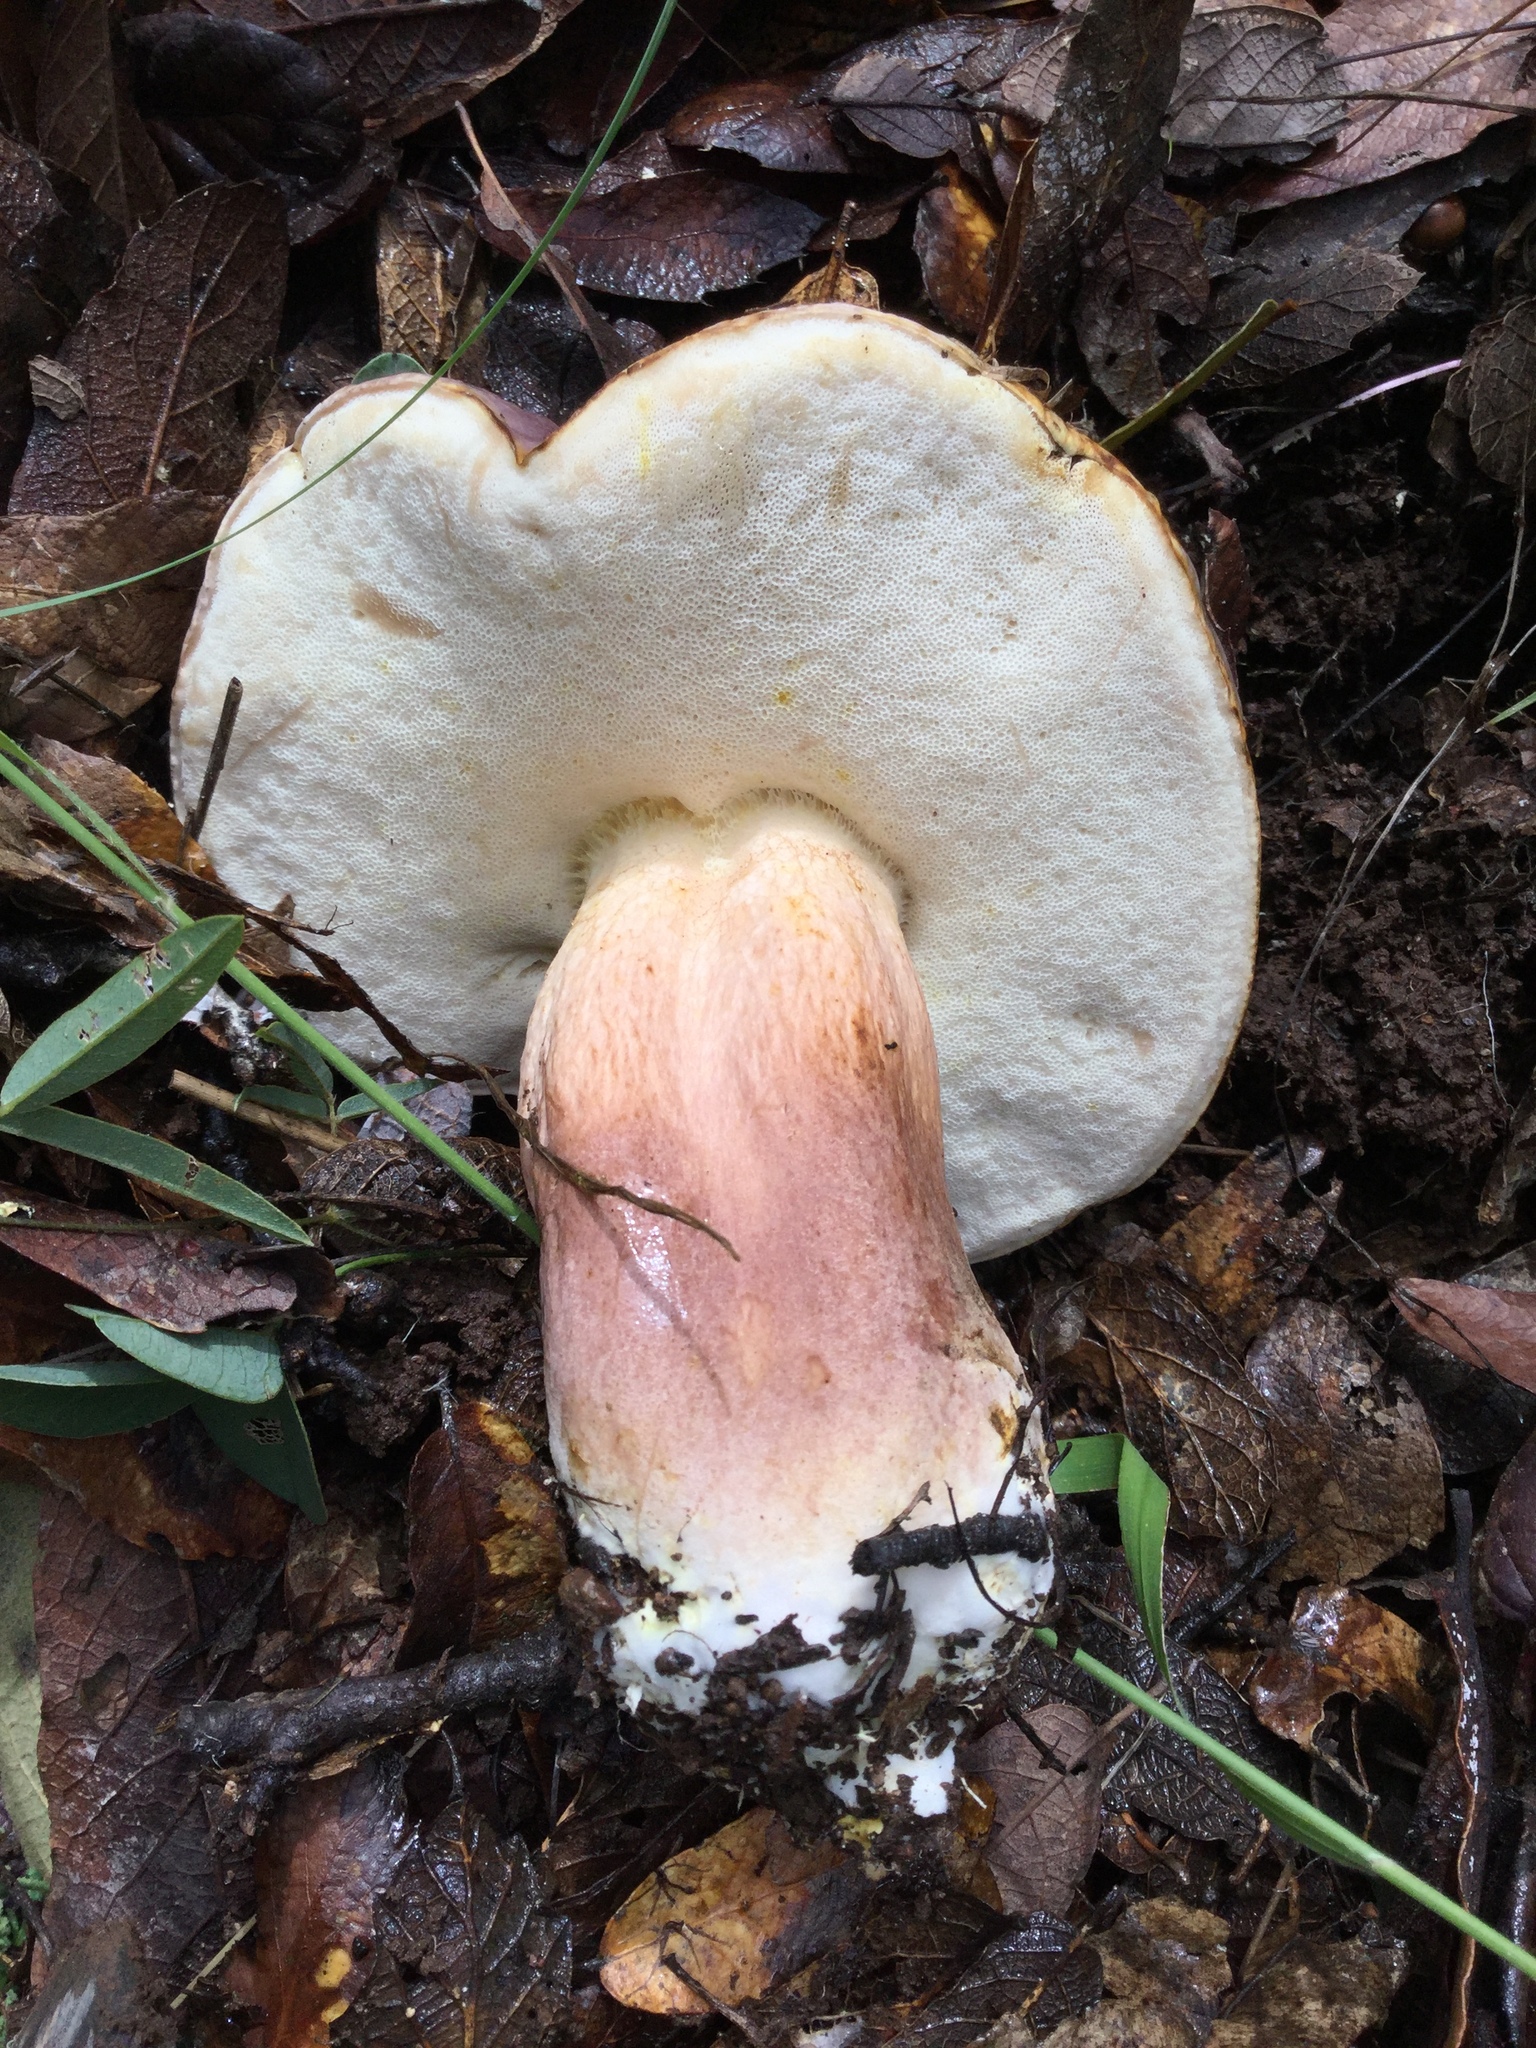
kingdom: Fungi
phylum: Basidiomycota
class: Agaricomycetes
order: Boletales
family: Boletaceae
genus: Tylopilus
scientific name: Tylopilus rubrobrunneus
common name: Reddish brown bitter bolete
